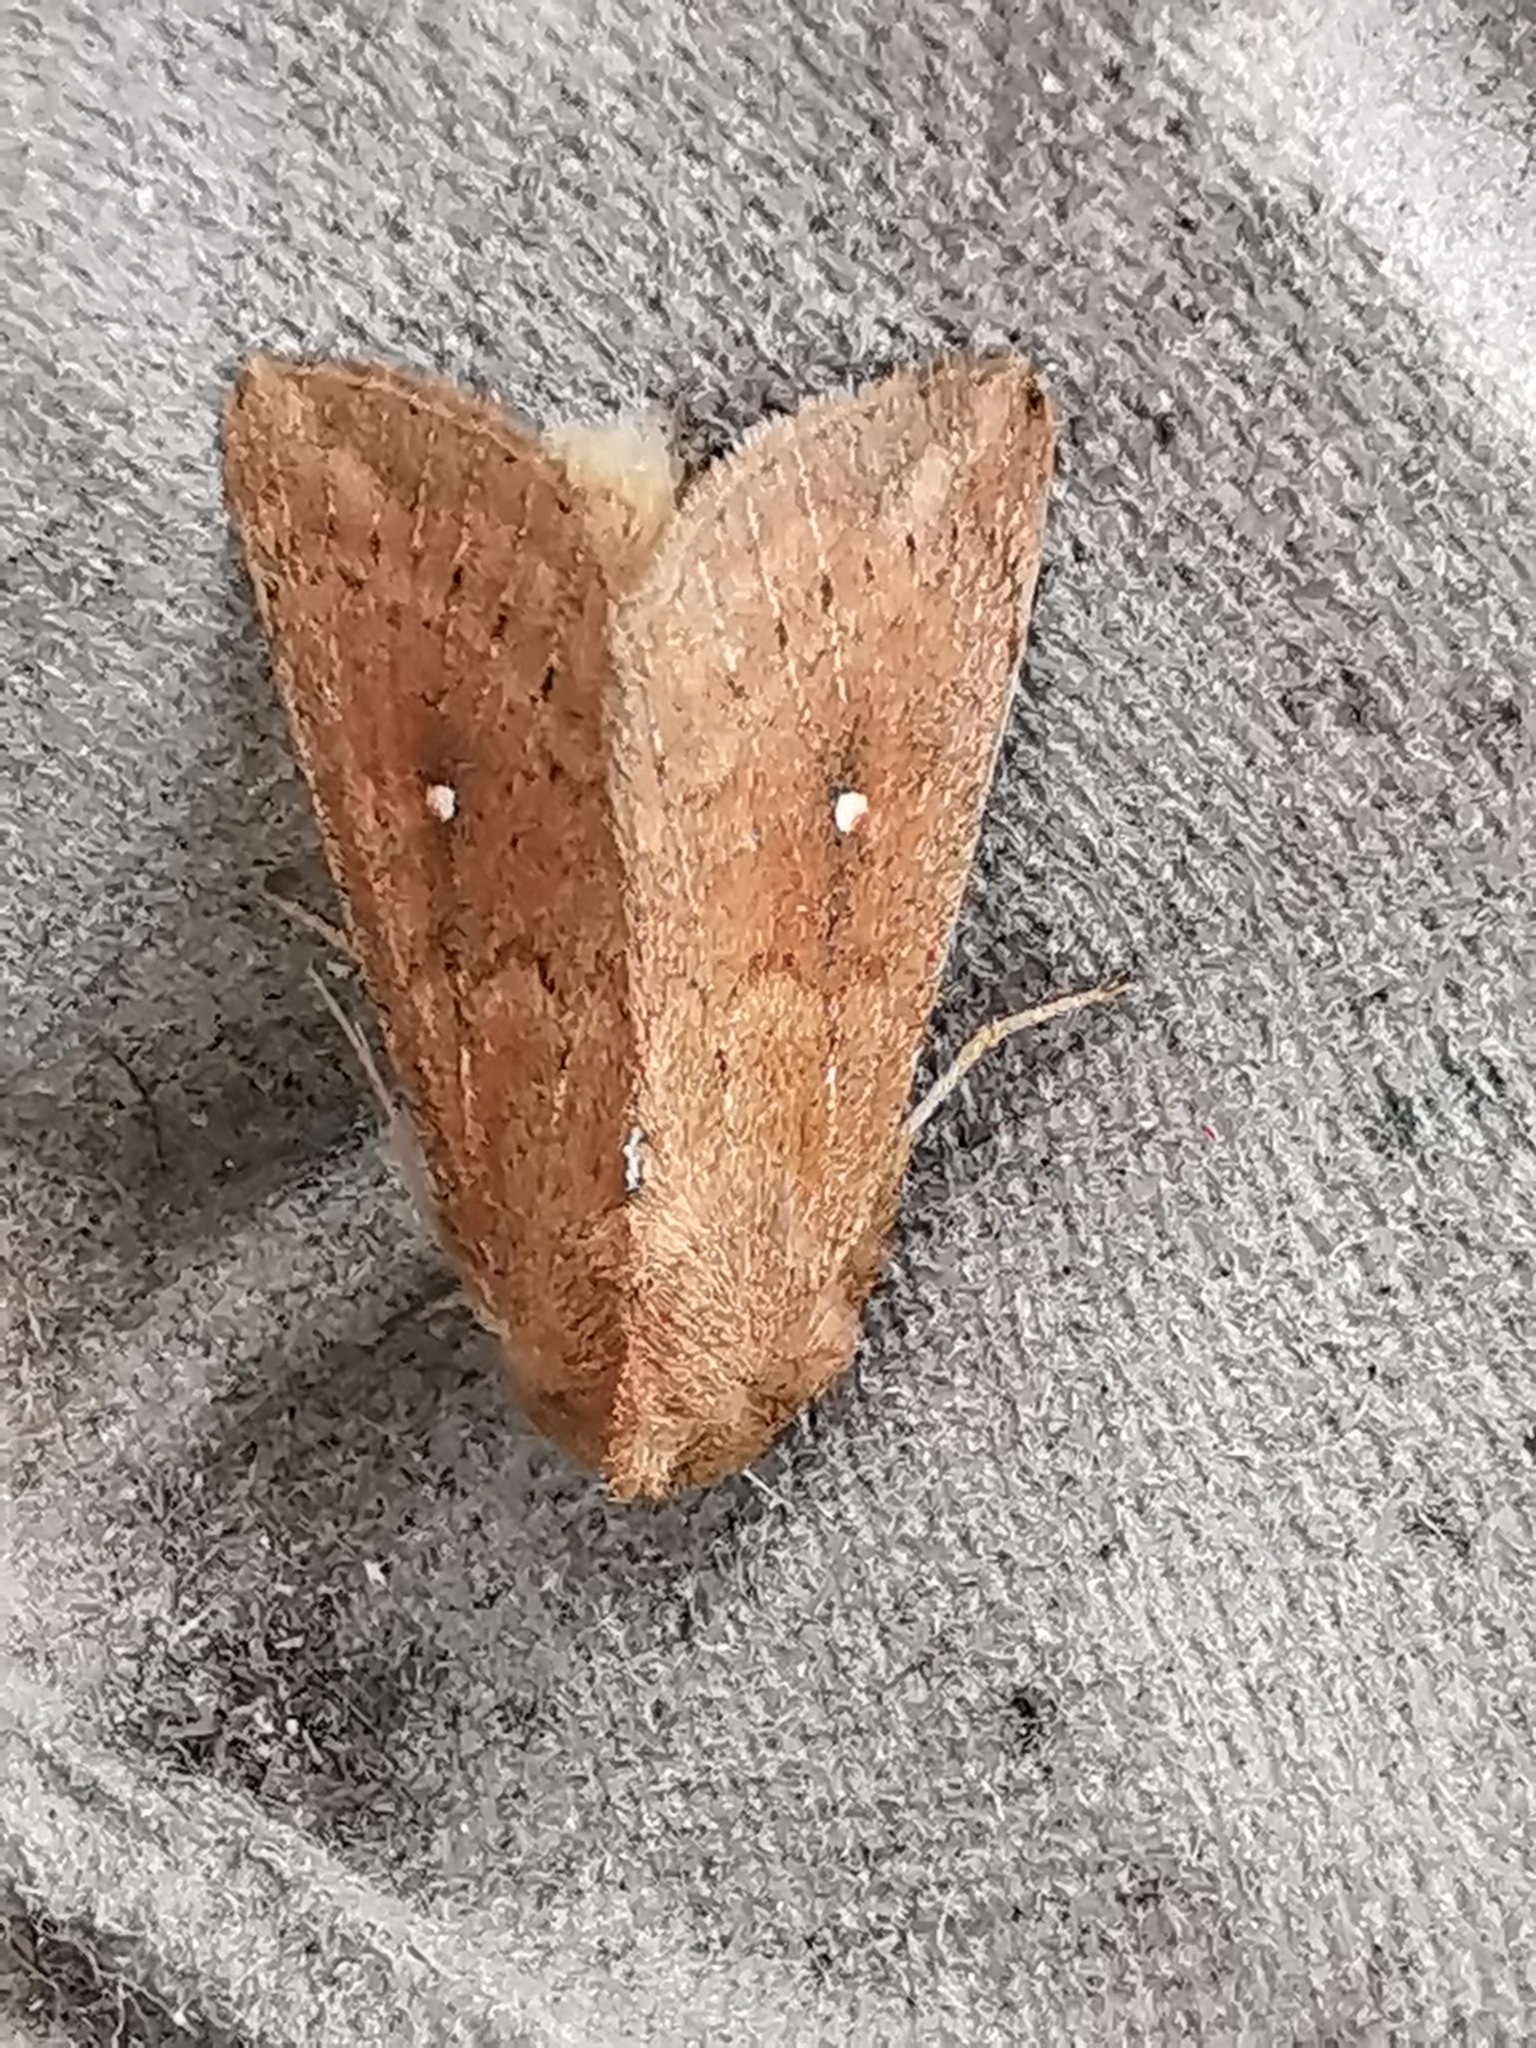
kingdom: Animalia
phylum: Arthropoda
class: Insecta
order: Lepidoptera
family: Noctuidae
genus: Mythimna
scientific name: Mythimna albipuncta
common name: White-point
